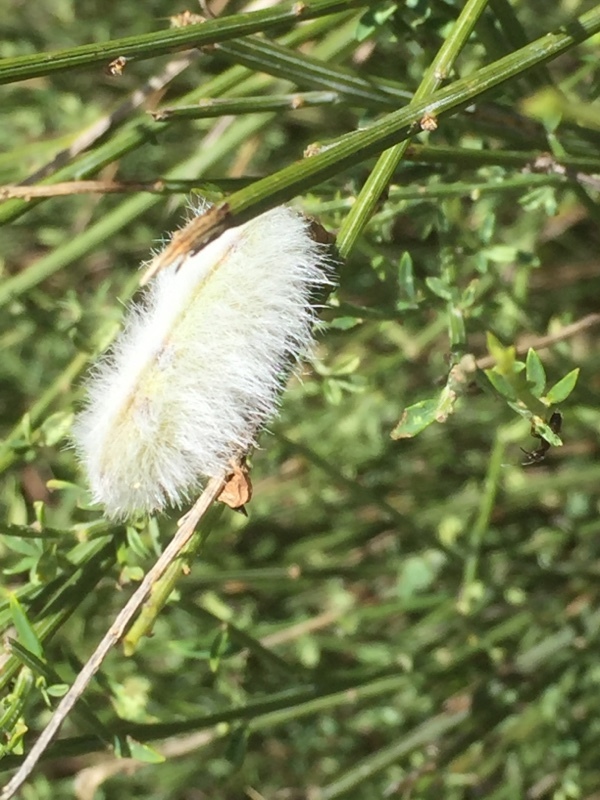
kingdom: Plantae
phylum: Tracheophyta
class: Magnoliopsida
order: Fabales
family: Fabaceae
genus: Cytisus
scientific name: Cytisus striatus
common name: Hairy-fruited broom
